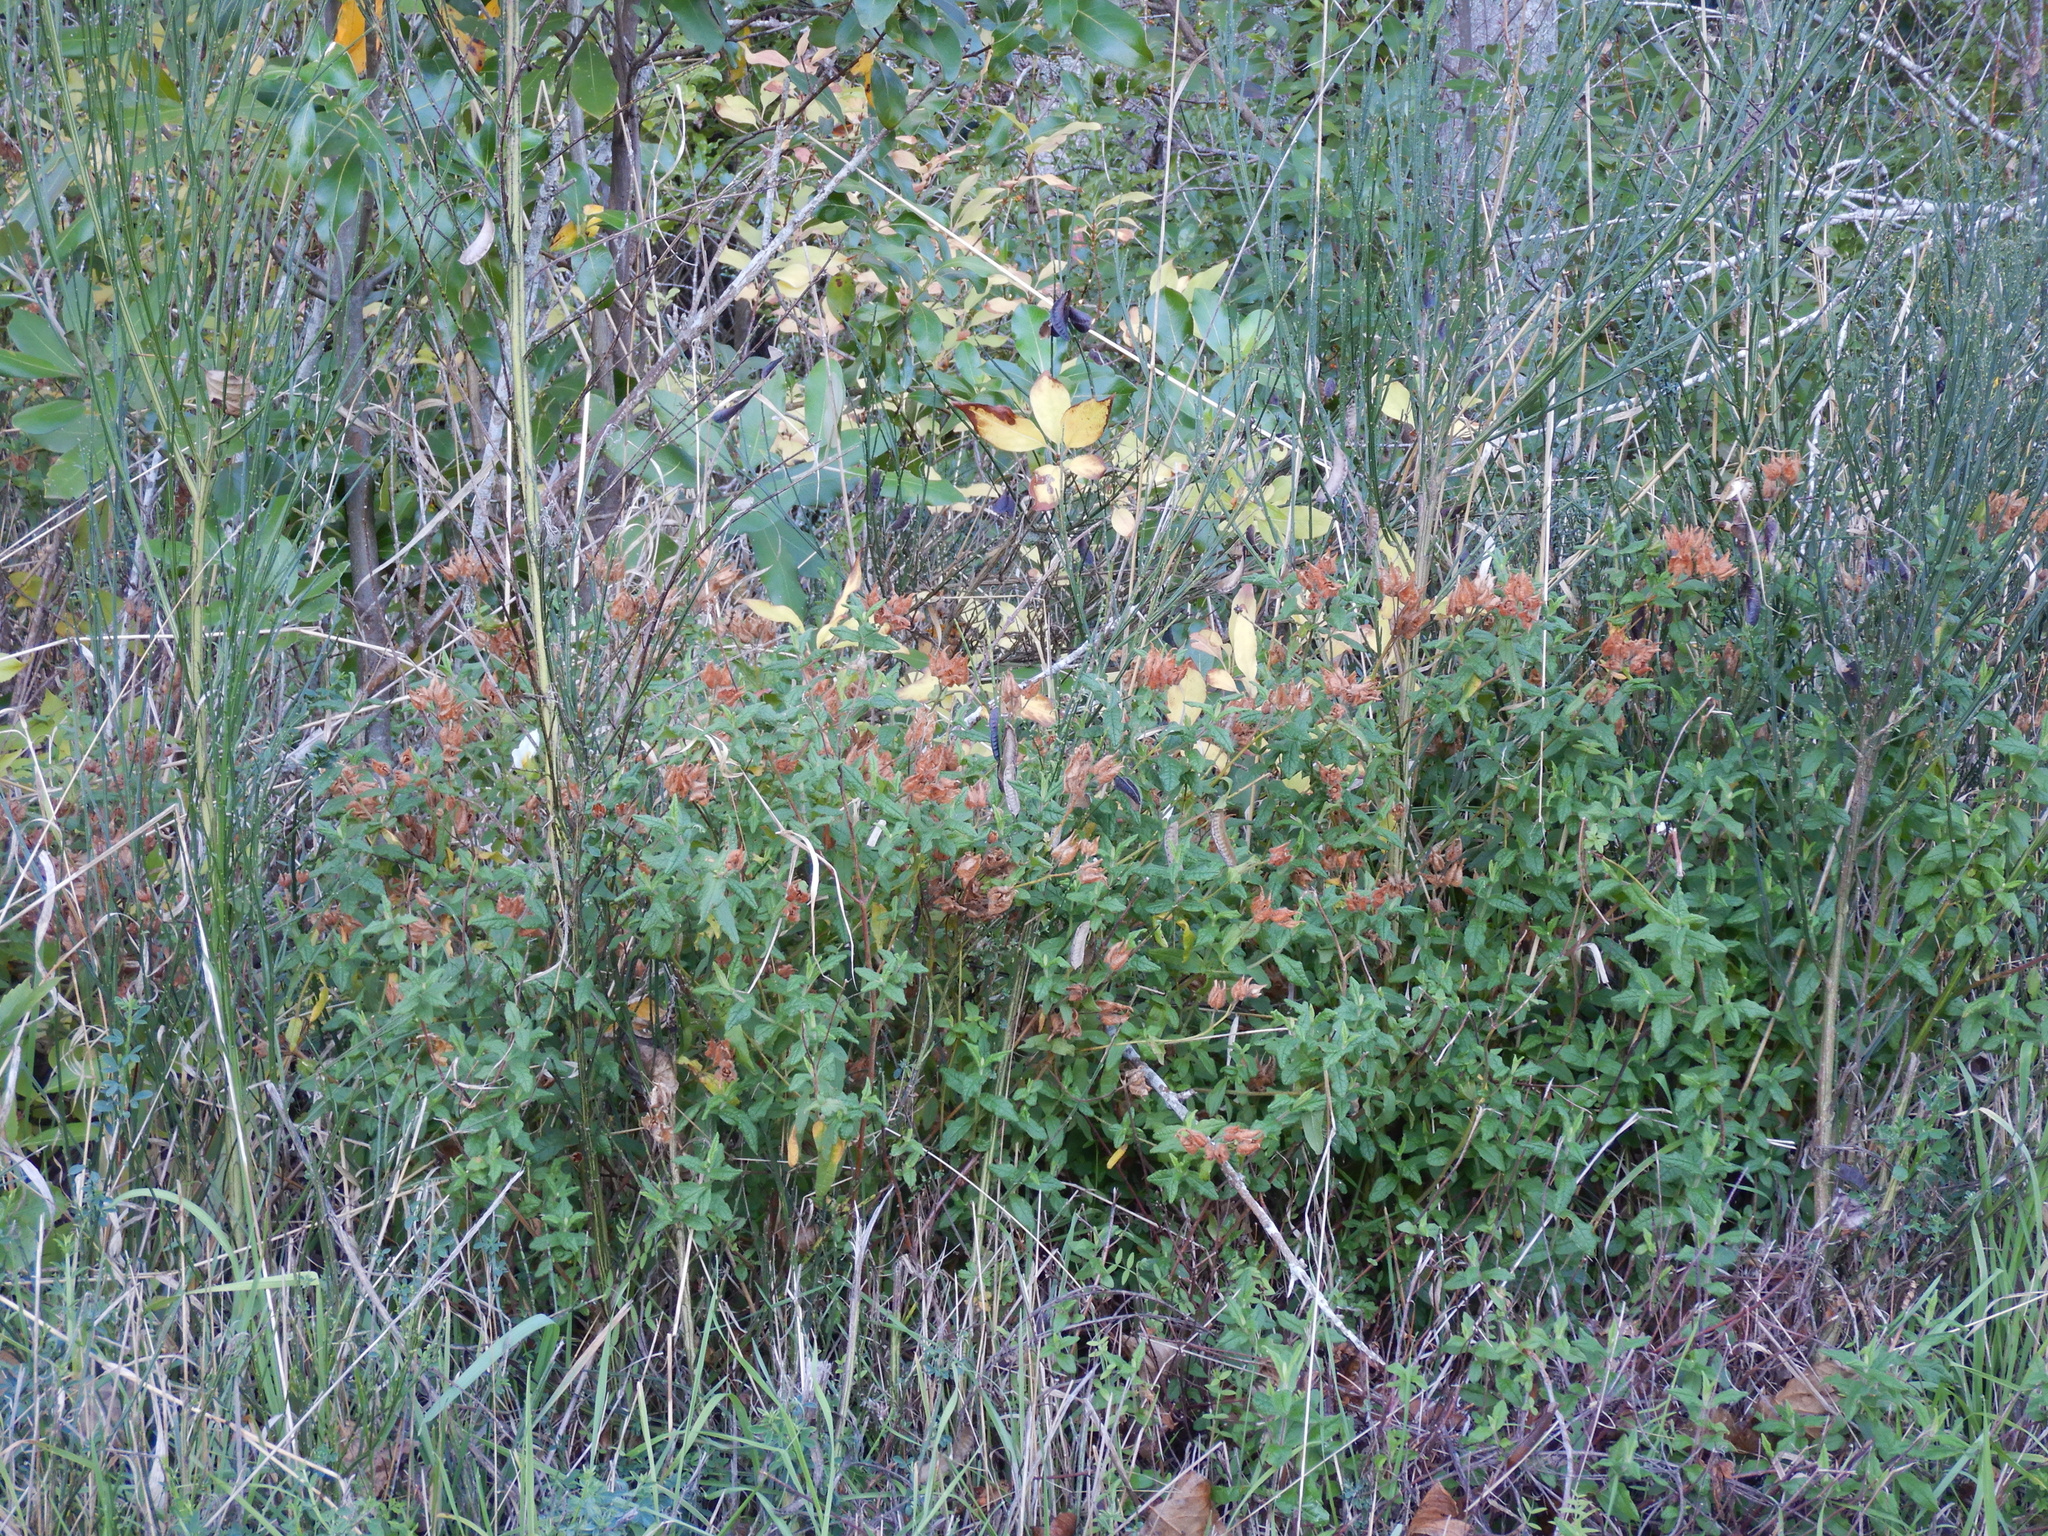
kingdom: Plantae
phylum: Tracheophyta
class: Magnoliopsida
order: Malvales
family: Cistaceae
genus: Cistus
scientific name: Cistus inflatus
